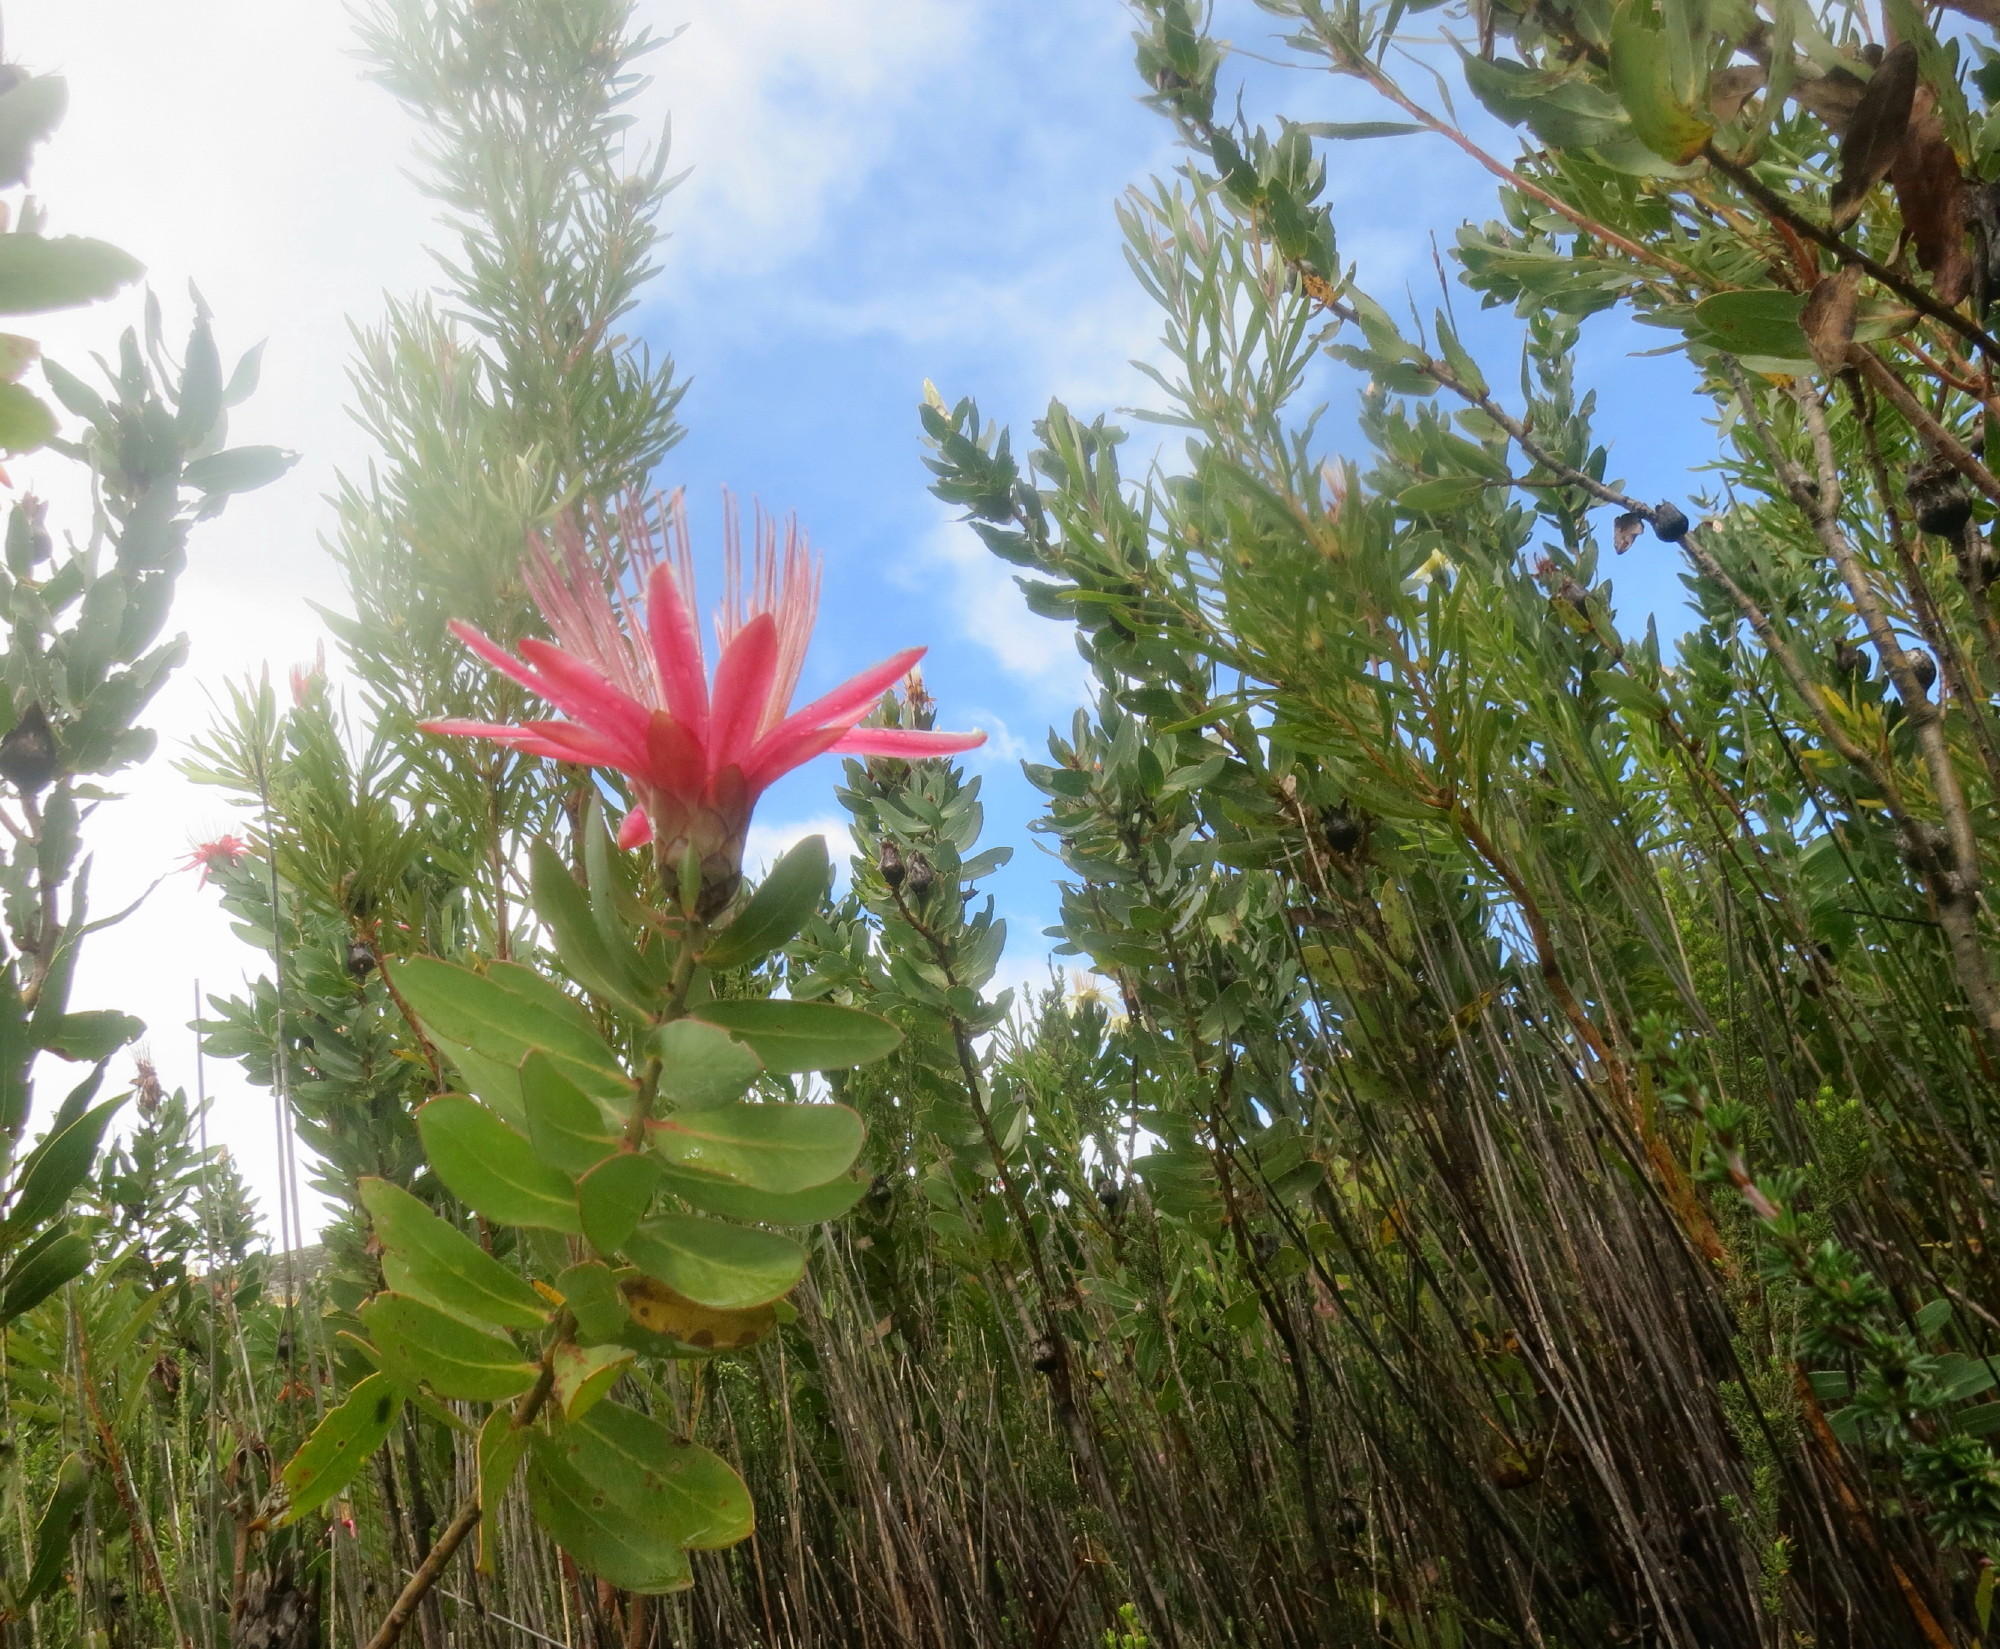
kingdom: Plantae
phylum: Tracheophyta
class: Magnoliopsida
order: Proteales
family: Proteaceae
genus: Protea
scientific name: Protea aurea
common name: Shuttlecock sugarbush
